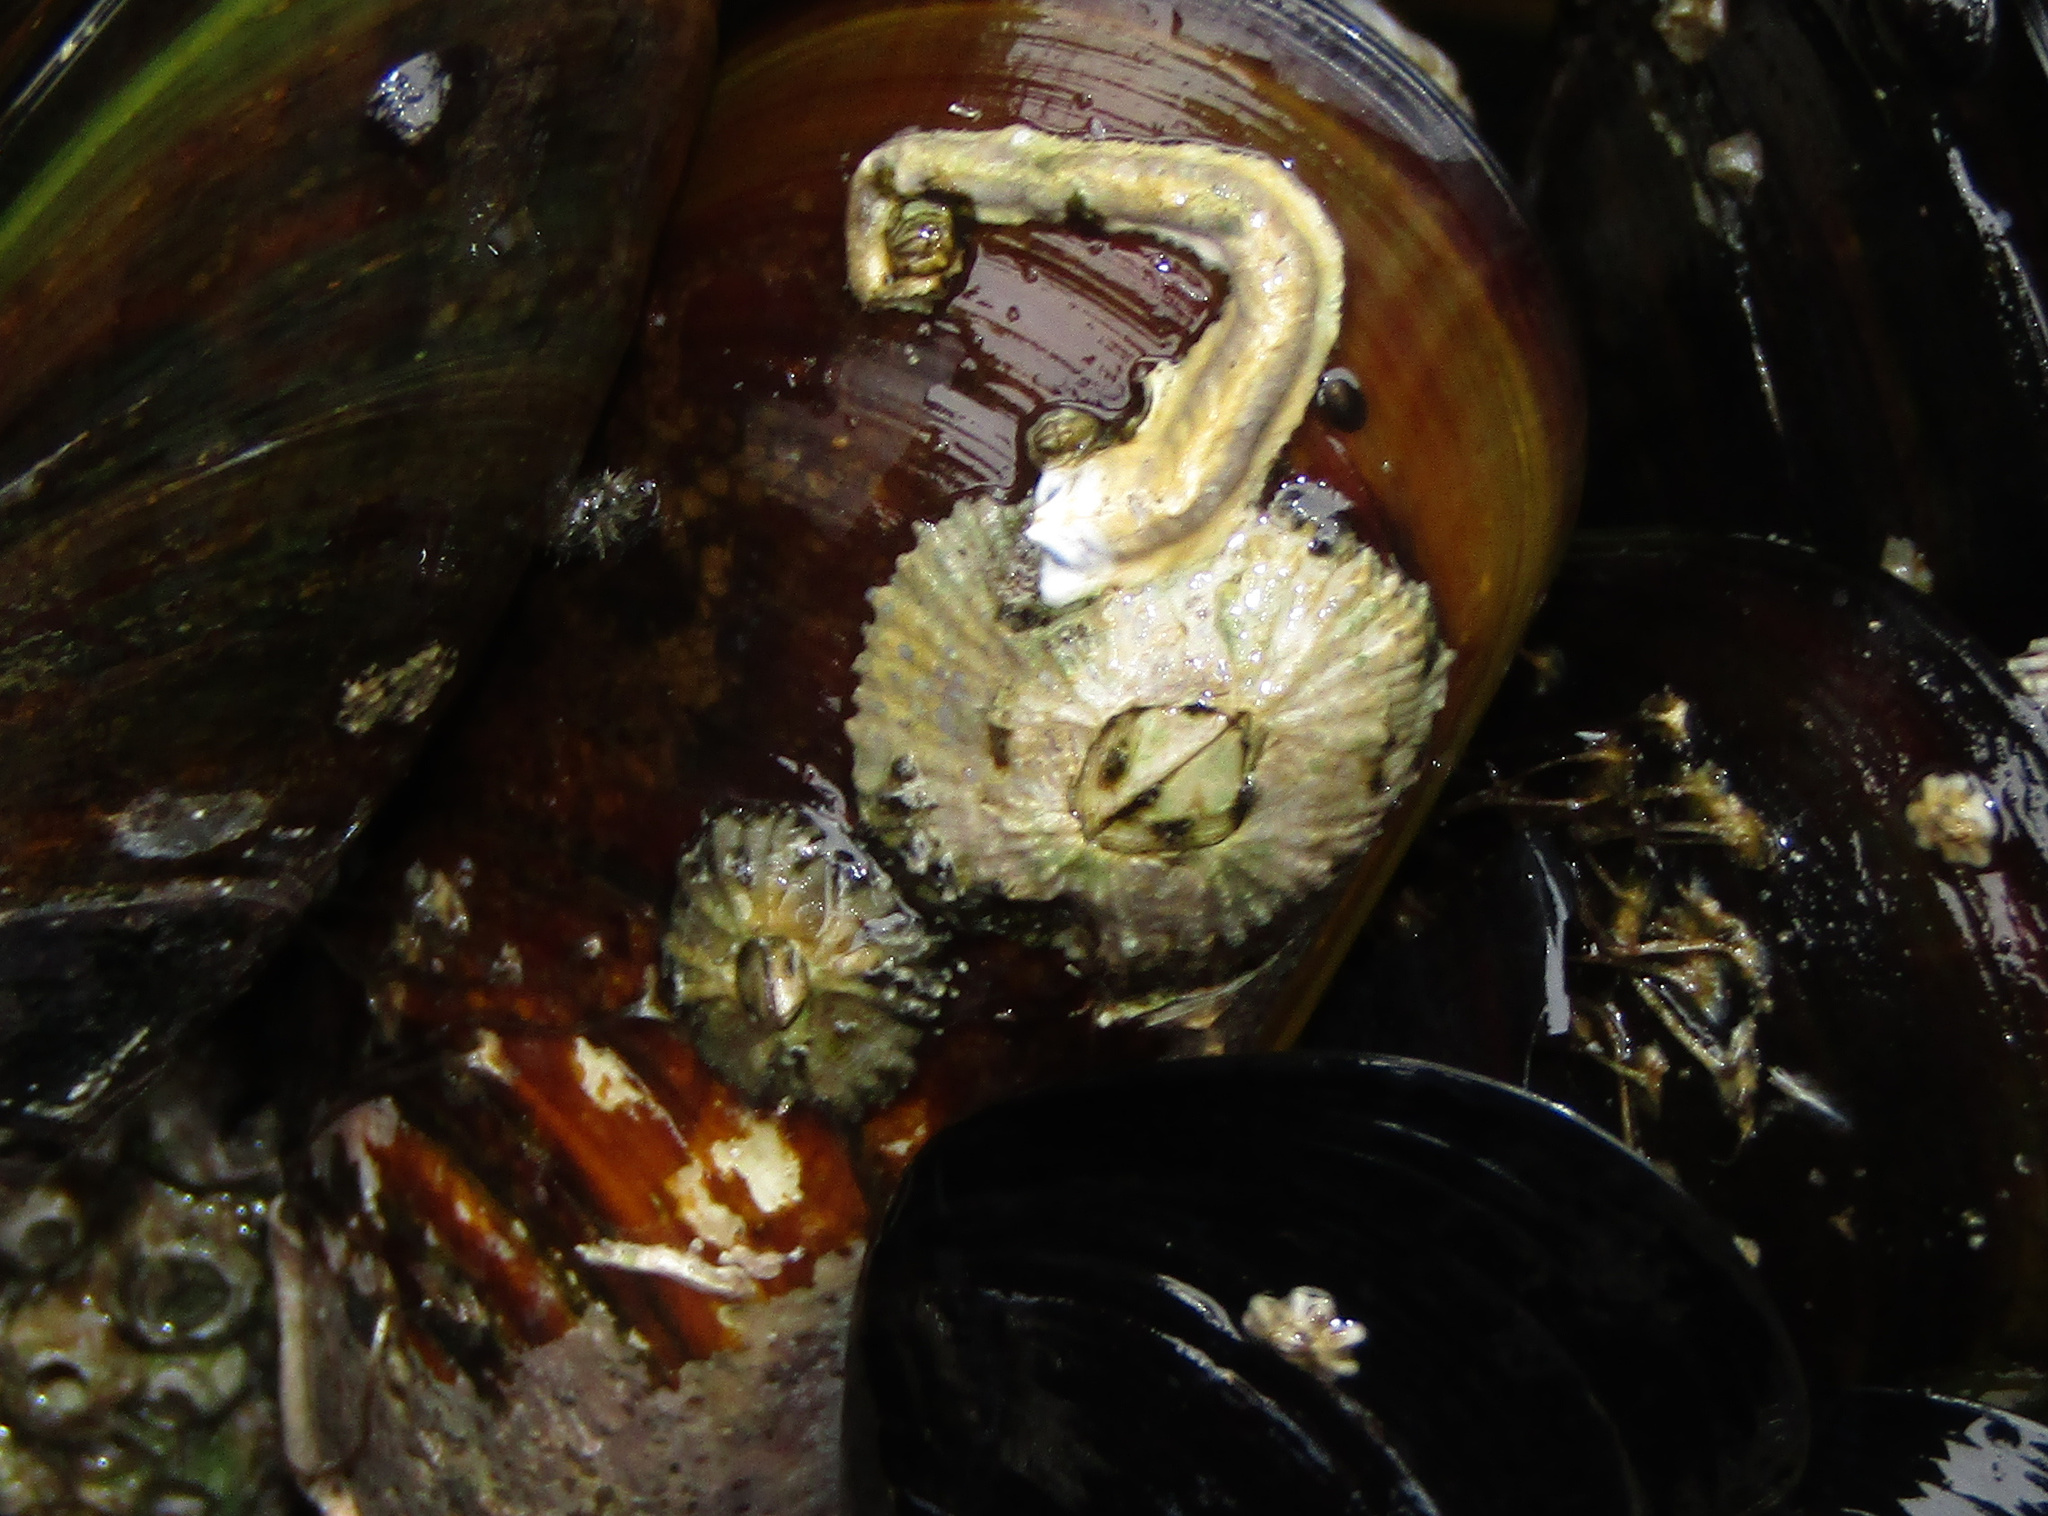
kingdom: Animalia
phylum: Arthropoda
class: Maxillopoda
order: Sessilia
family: Tetraclitidae
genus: Tetraclitella
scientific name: Tetraclitella depressa
